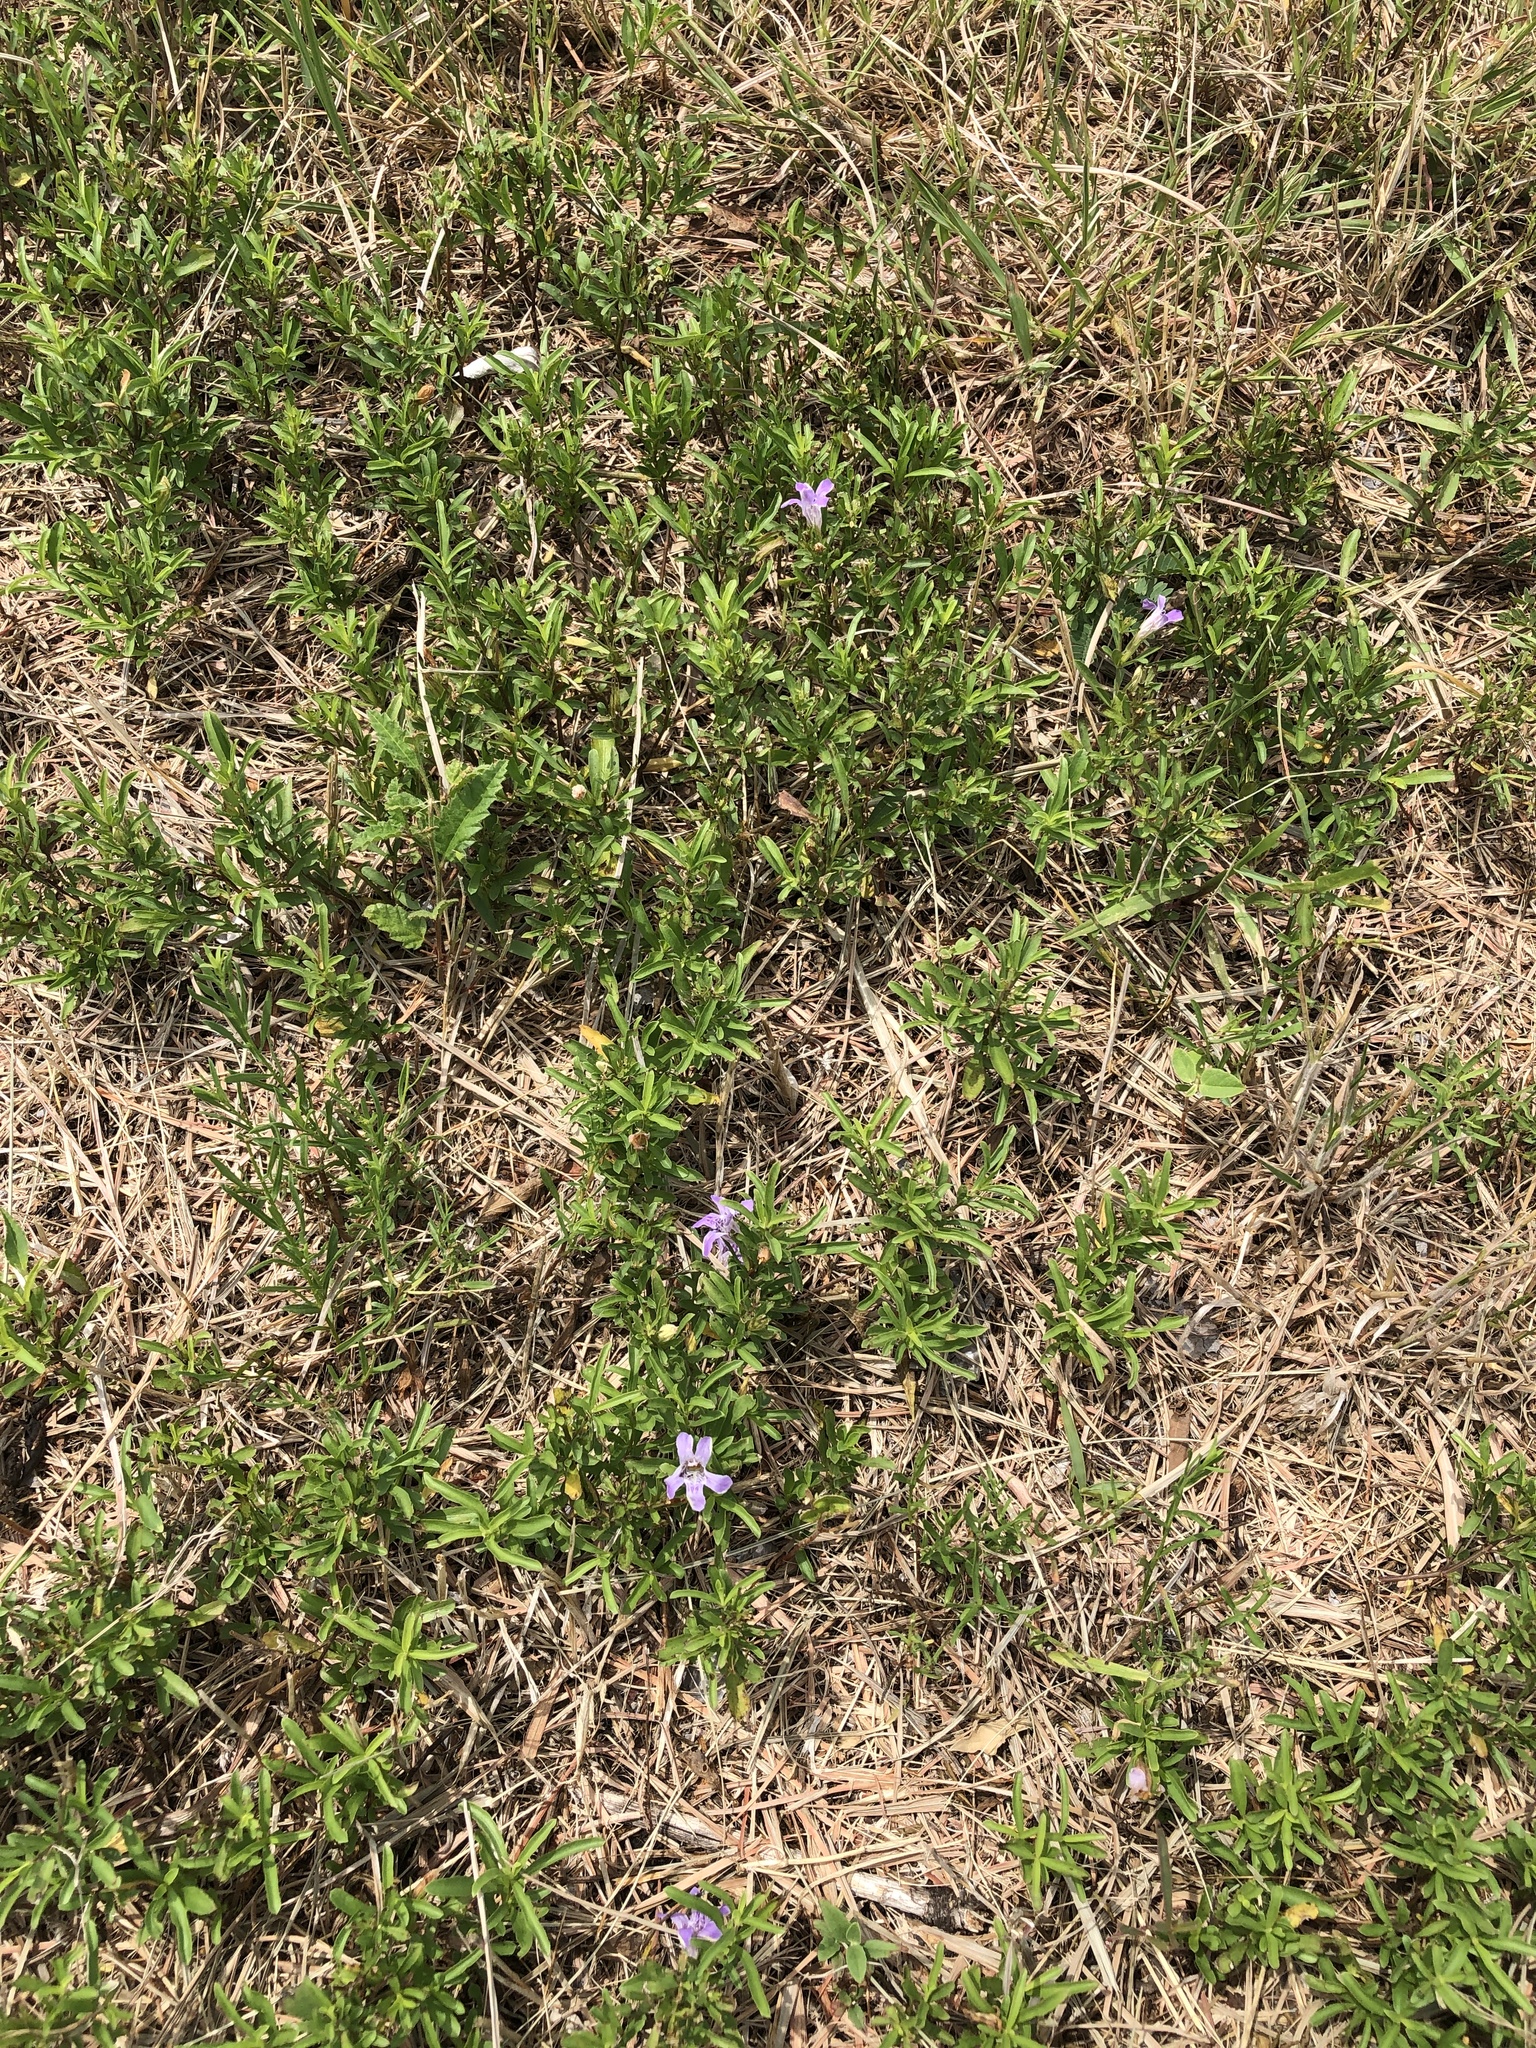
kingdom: Plantae
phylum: Tracheophyta
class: Magnoliopsida
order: Lamiales
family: Acanthaceae
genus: Dyschoriste
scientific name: Dyschoriste linearis
